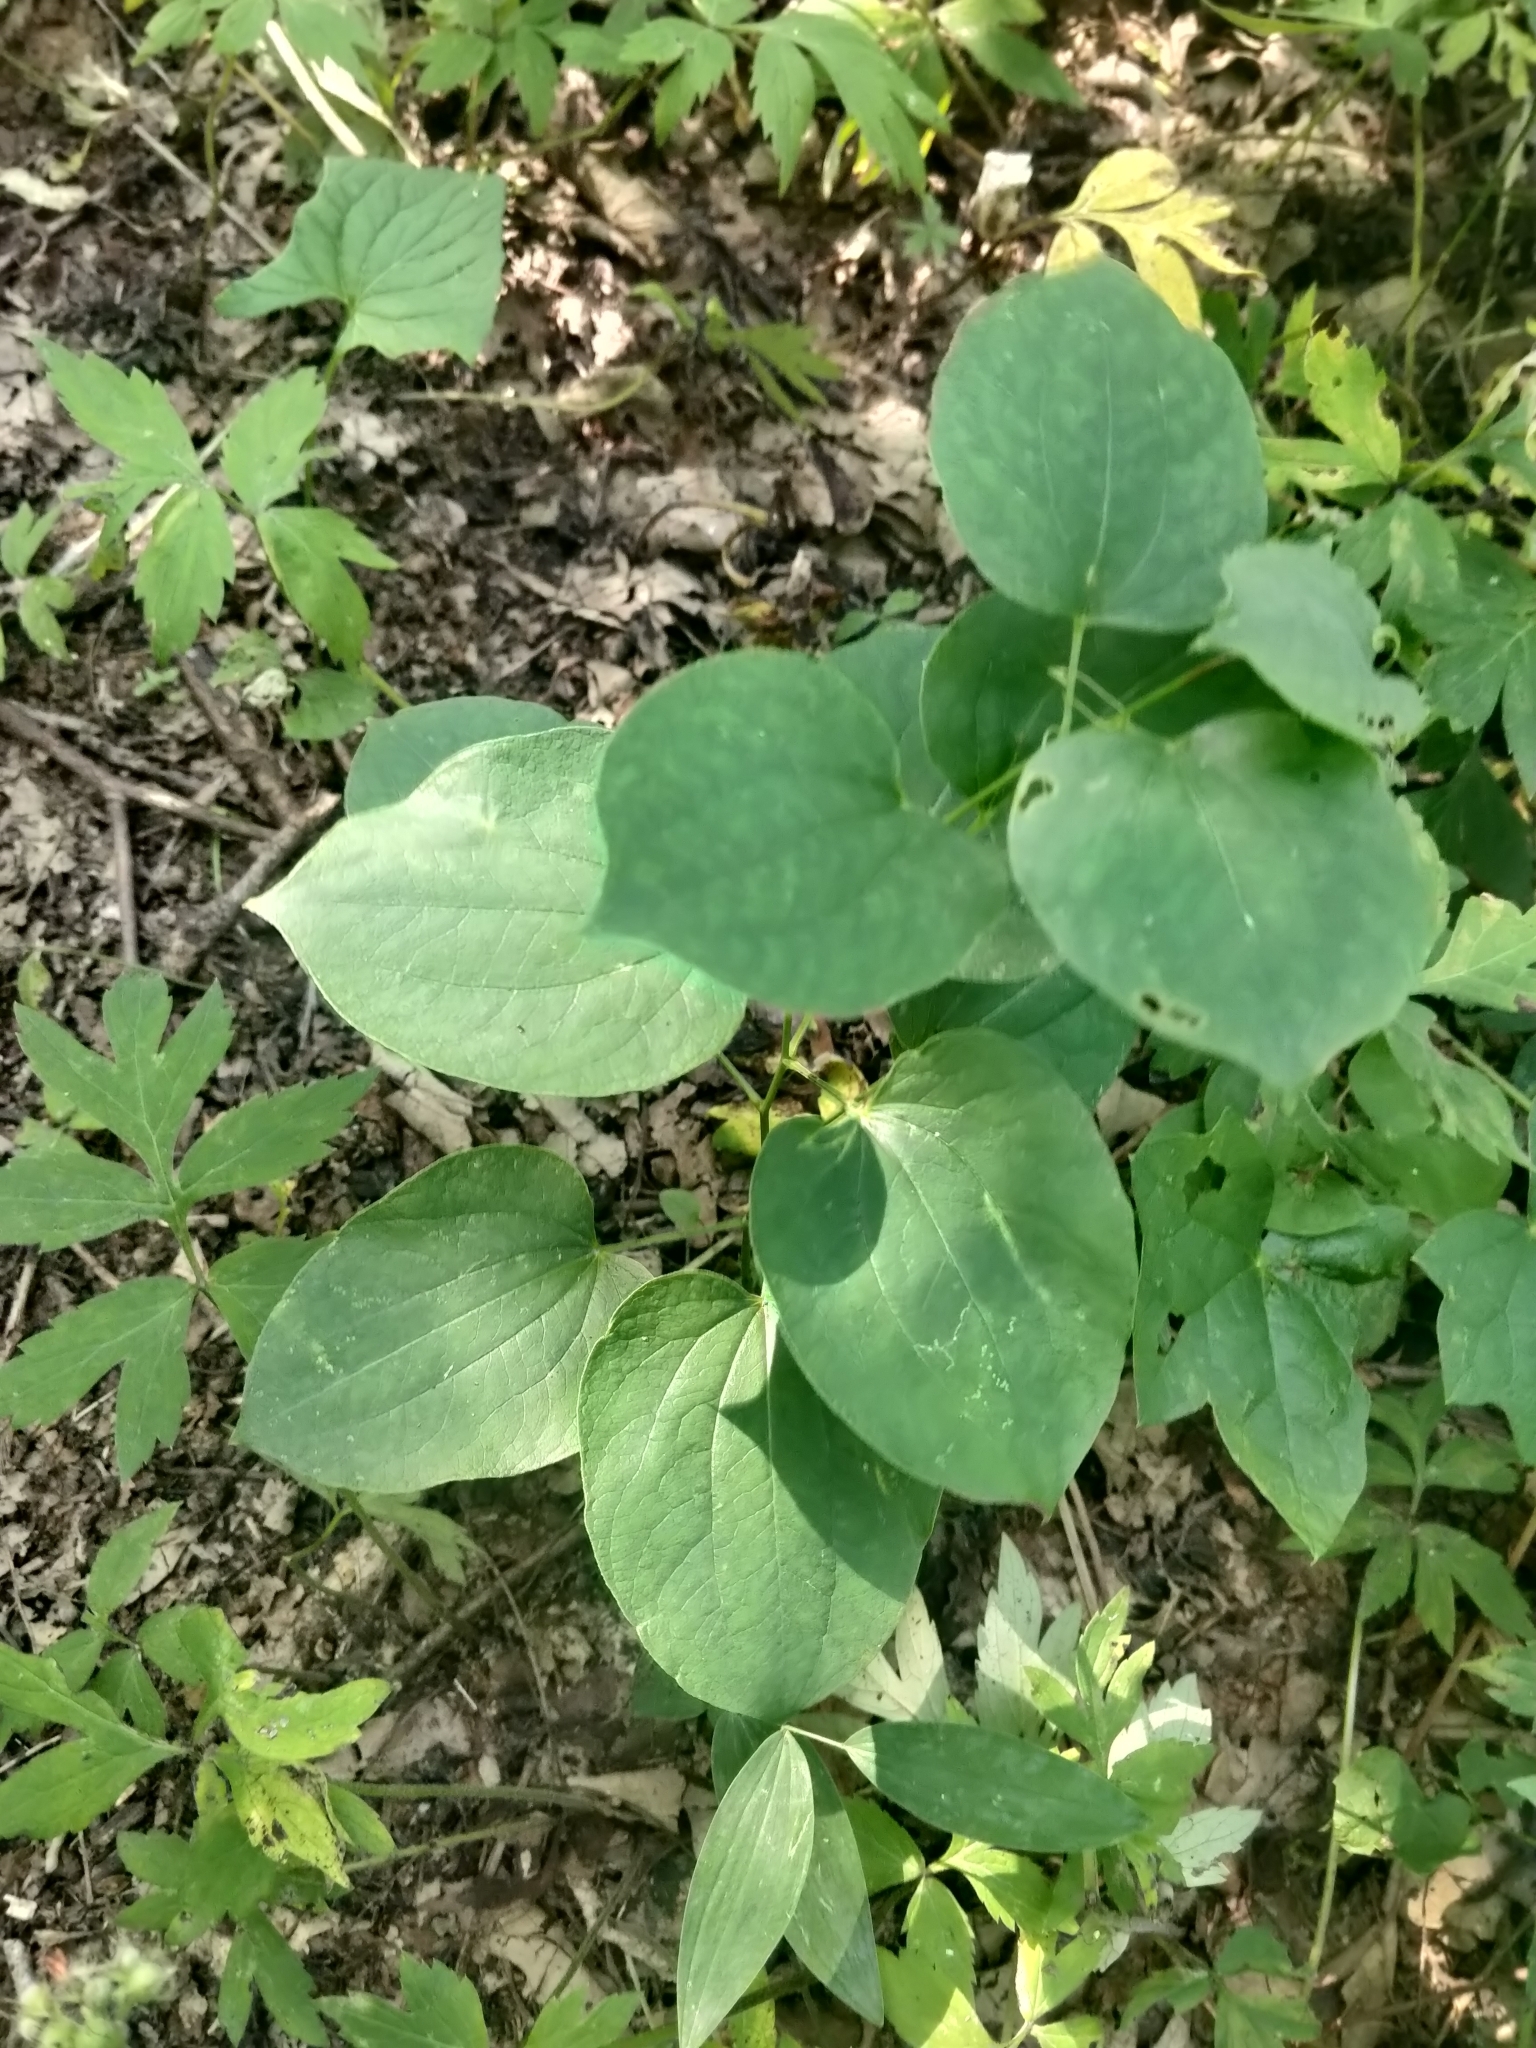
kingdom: Plantae
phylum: Tracheophyta
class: Liliopsida
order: Liliales
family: Smilacaceae
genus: Smilax
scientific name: Smilax ecirrhata
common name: Upright carrionflower
